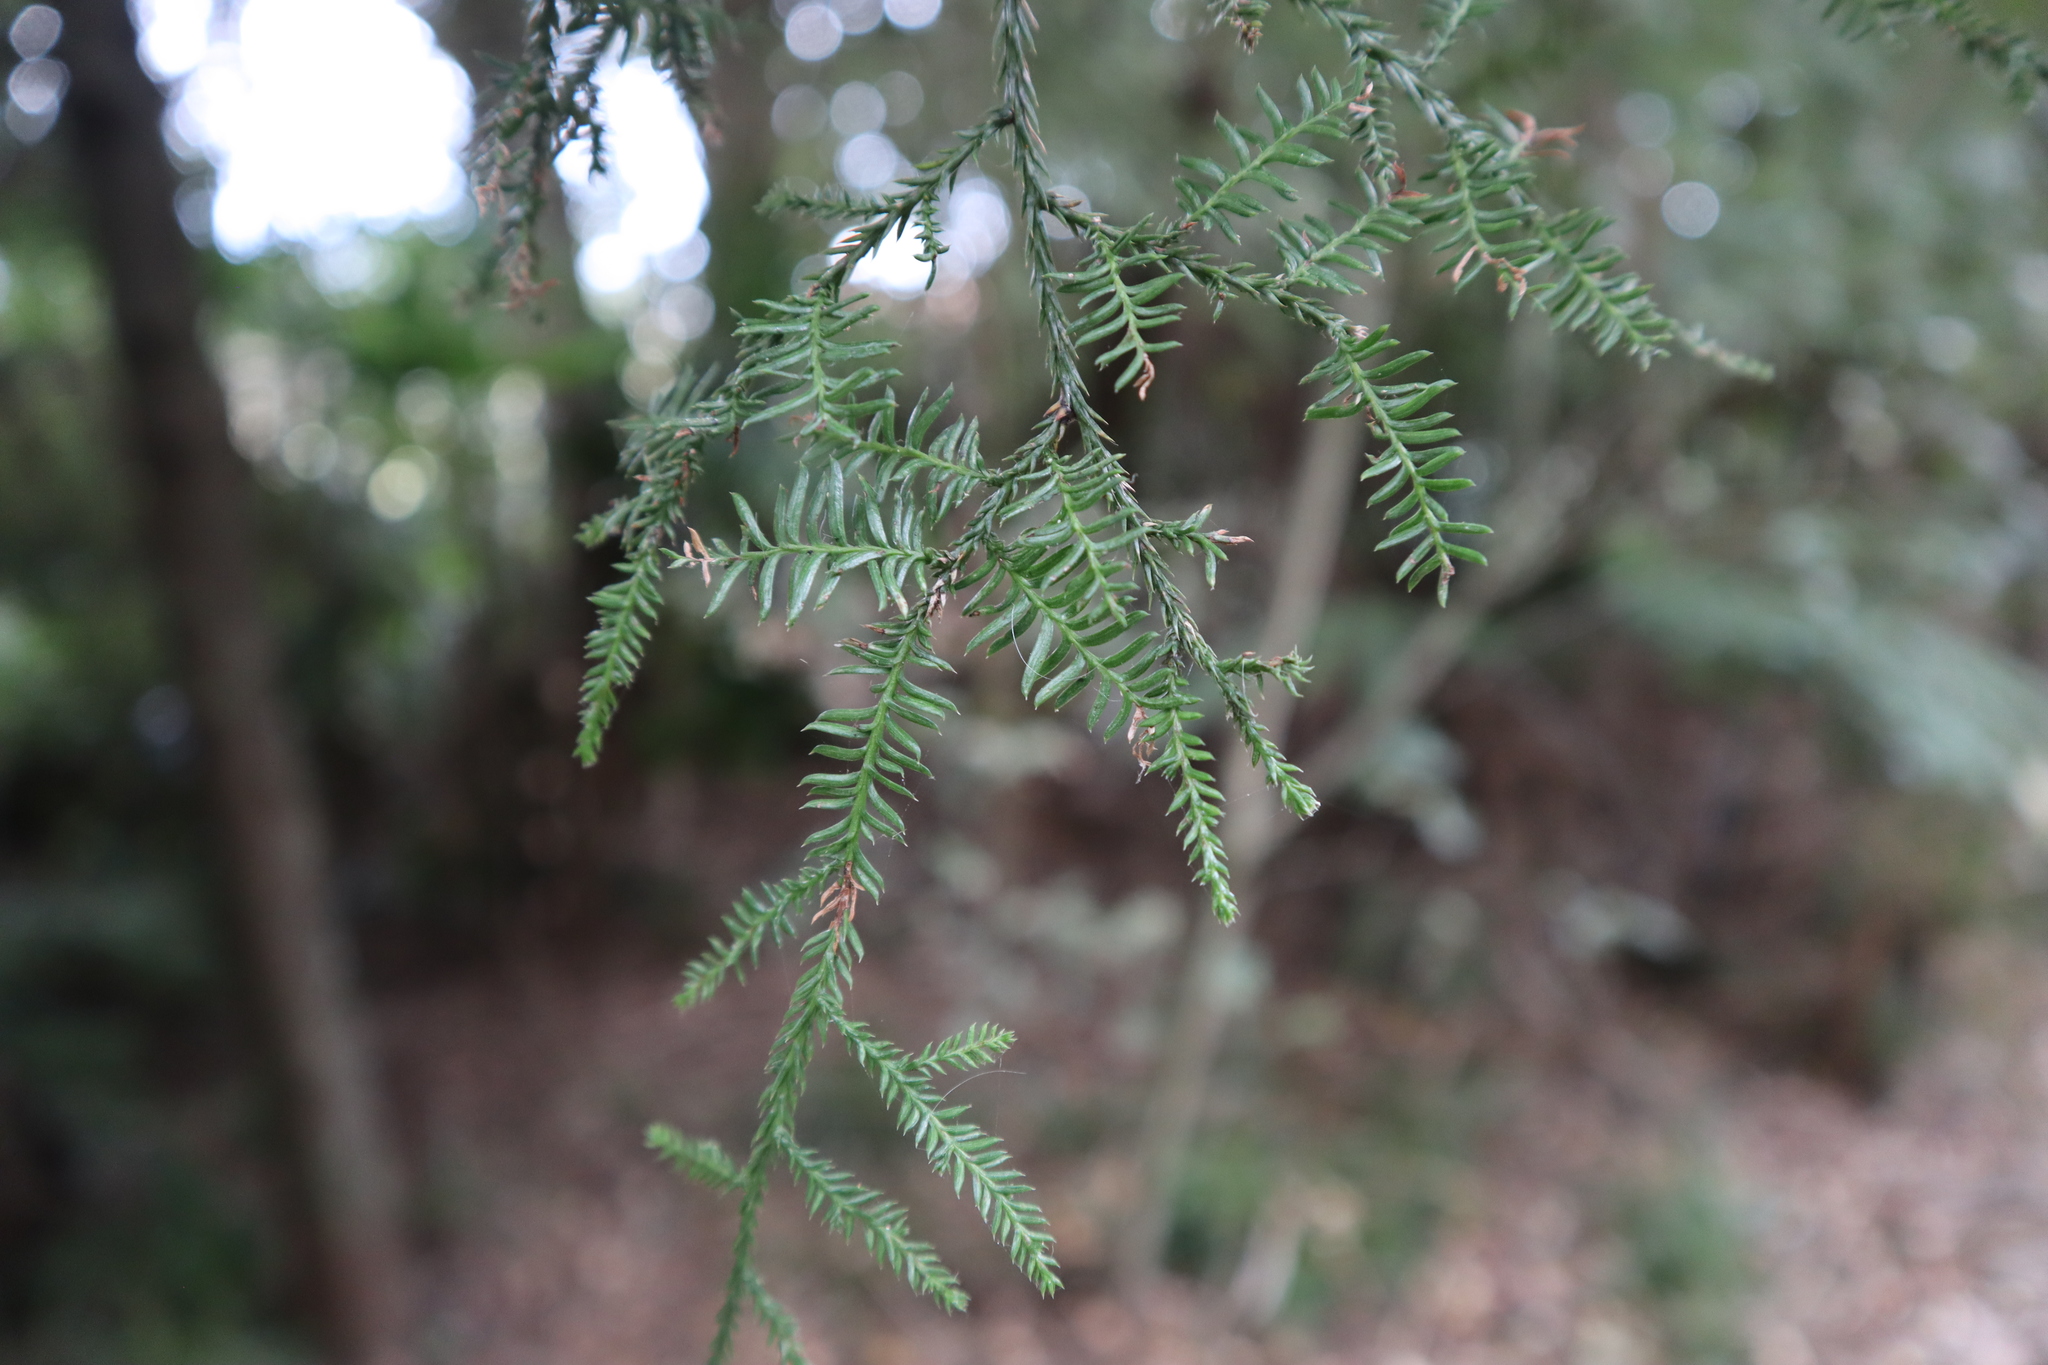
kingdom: Plantae
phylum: Tracheophyta
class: Pinopsida
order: Pinales
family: Podocarpaceae
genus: Dacrycarpus
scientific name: Dacrycarpus dacrydioides
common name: White pine
